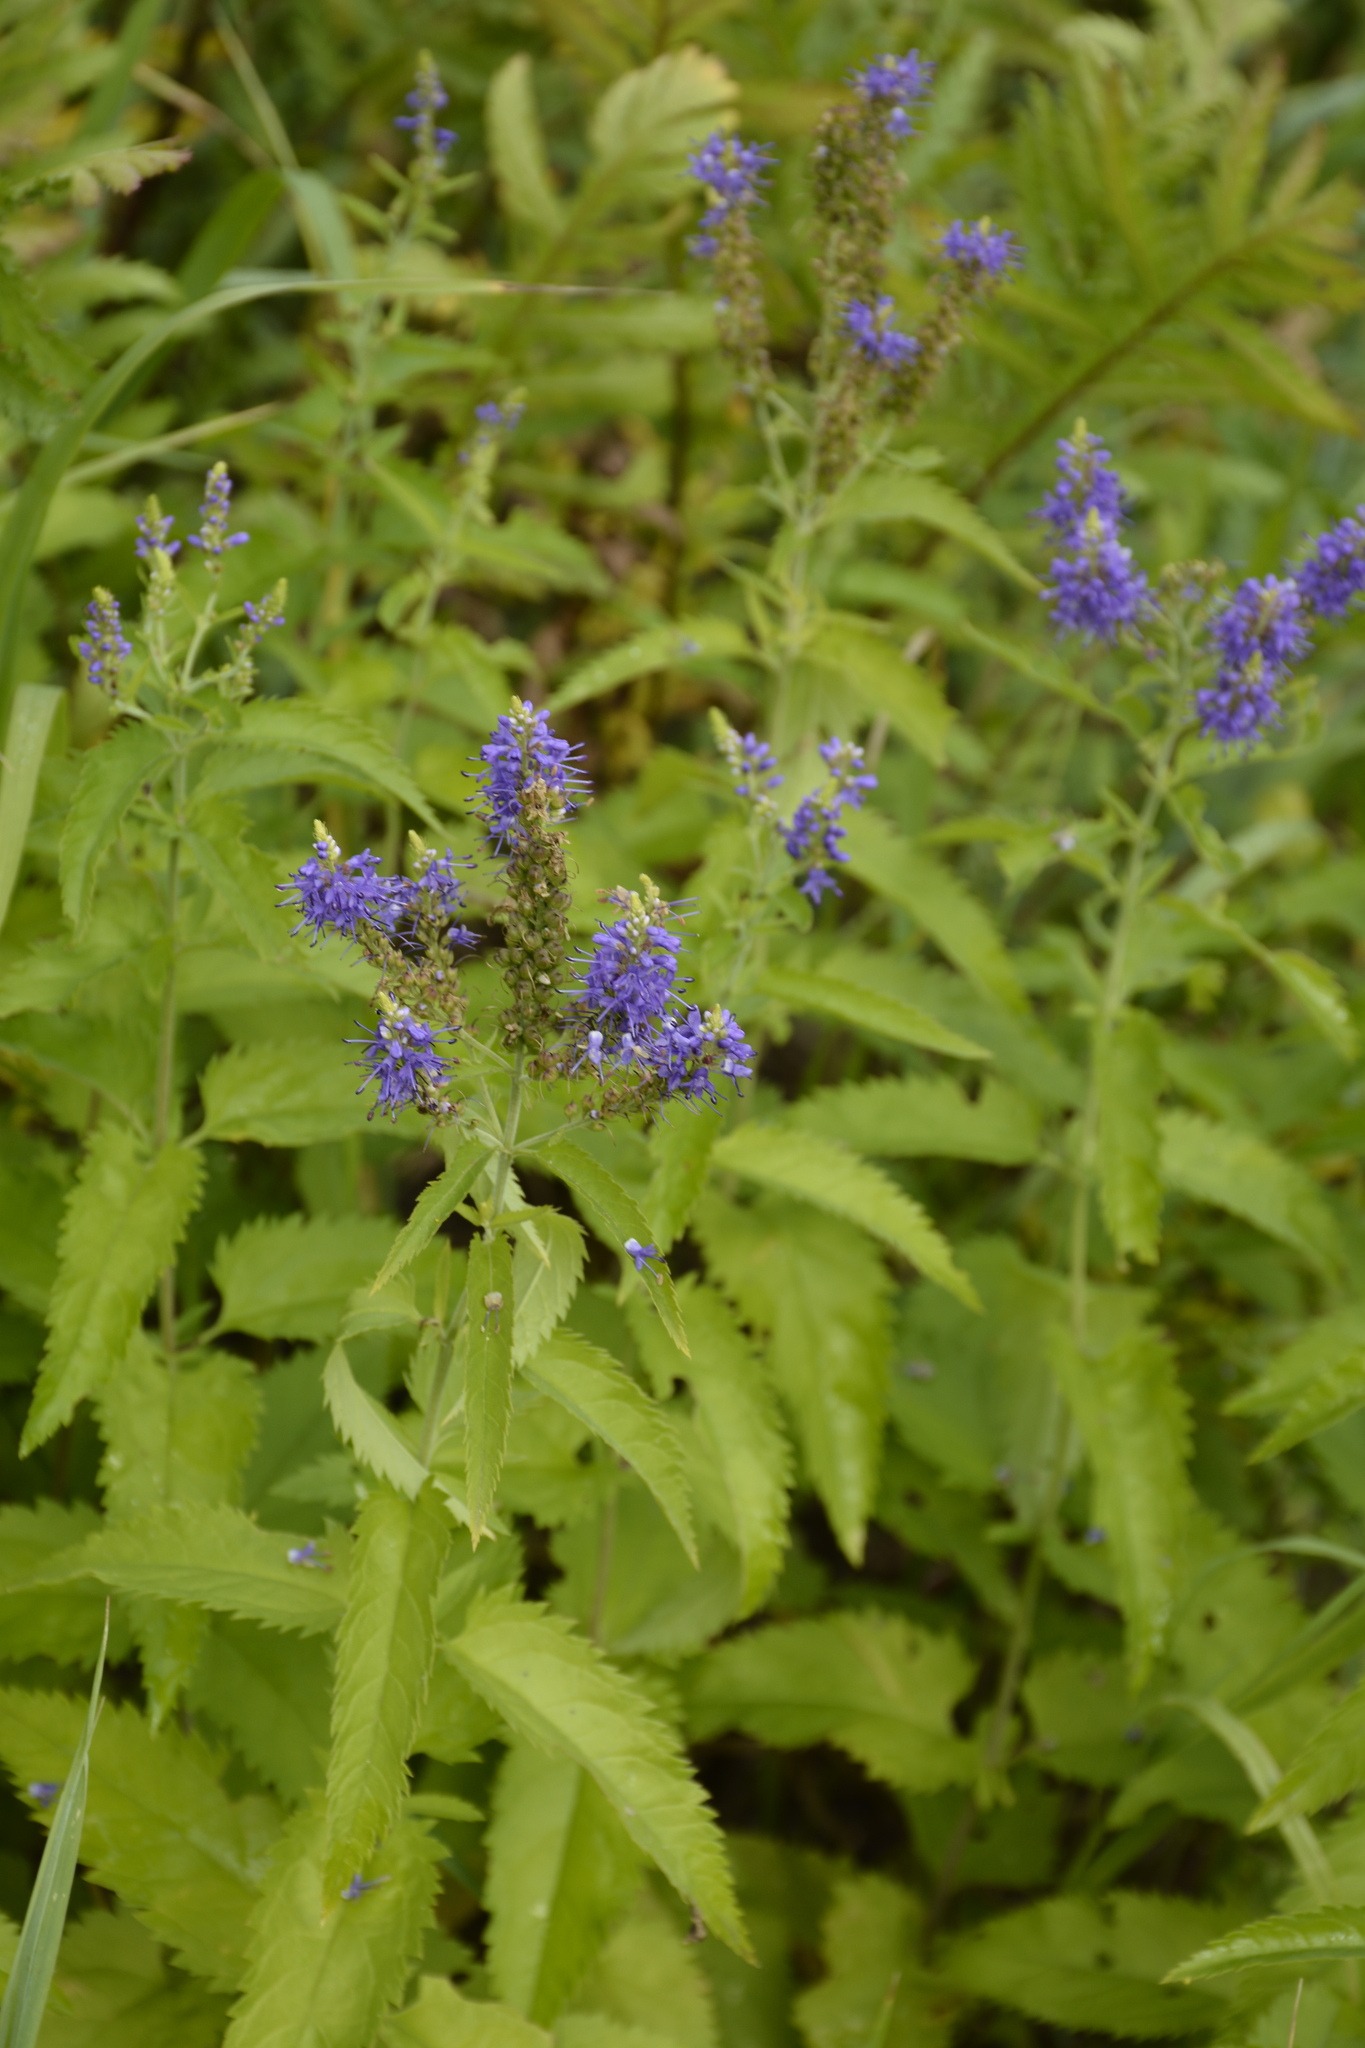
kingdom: Plantae
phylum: Tracheophyta
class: Magnoliopsida
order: Lamiales
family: Plantaginaceae
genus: Veronica
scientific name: Veronica longifolia
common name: Garden speedwell
